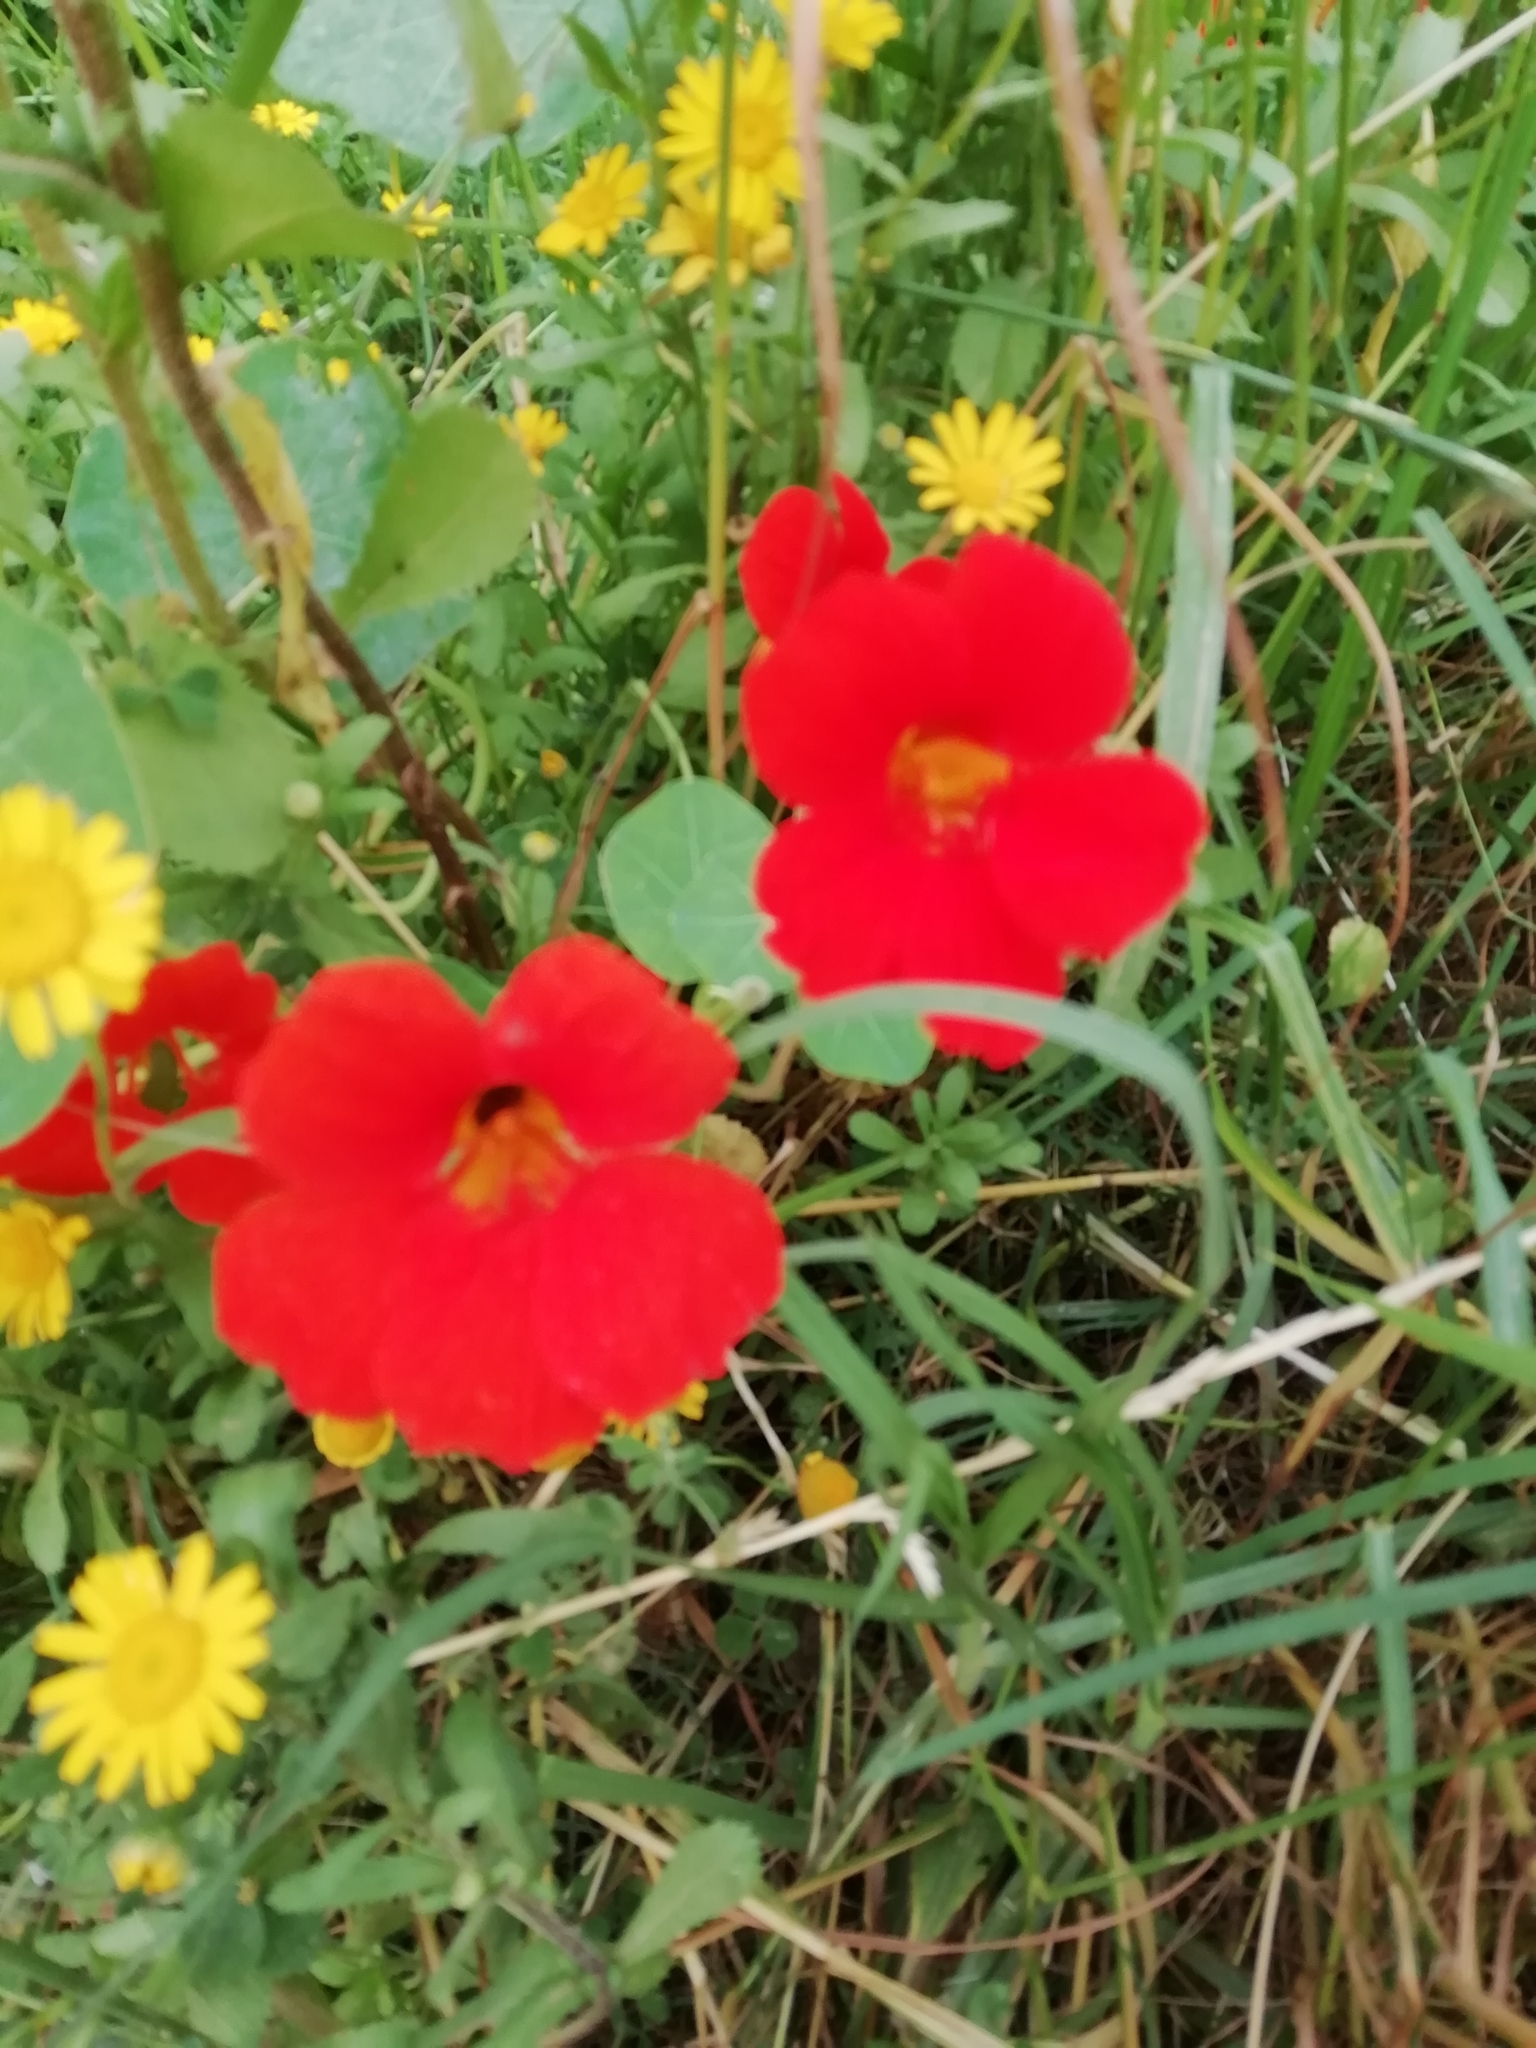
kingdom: Plantae
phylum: Tracheophyta
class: Magnoliopsida
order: Brassicales
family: Tropaeolaceae
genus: Tropaeolum
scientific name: Tropaeolum majus
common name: Nasturtium
